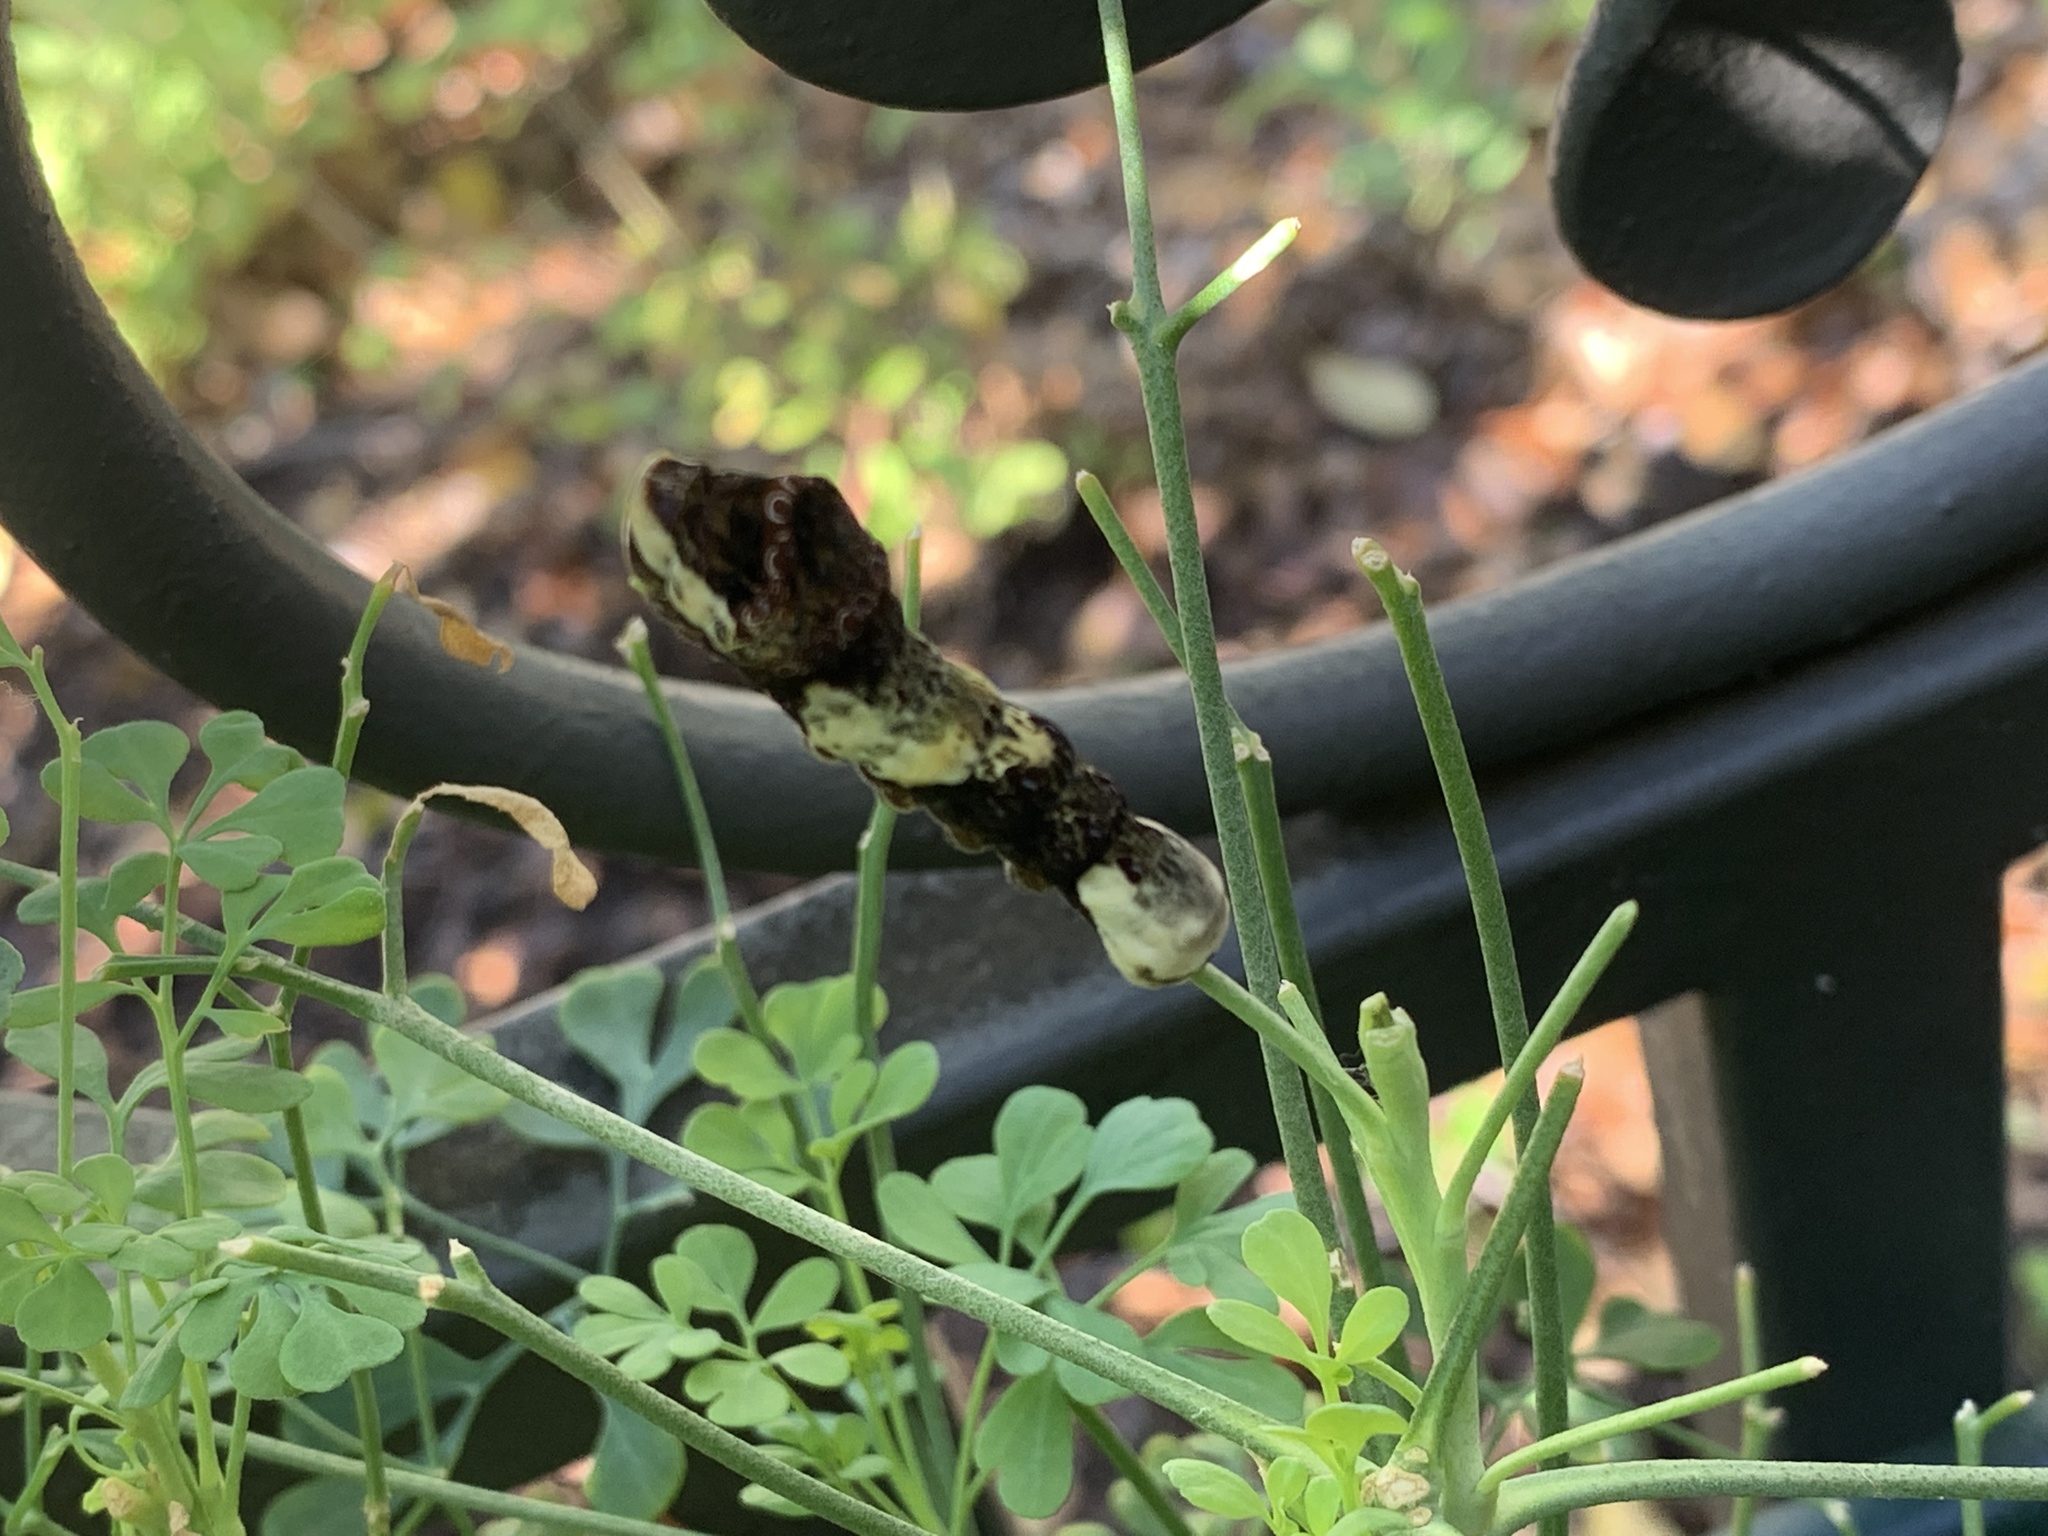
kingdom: Animalia
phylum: Arthropoda
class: Insecta
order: Lepidoptera
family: Papilionidae
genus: Papilio
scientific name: Papilio cresphontes
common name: Giant swallowtail
